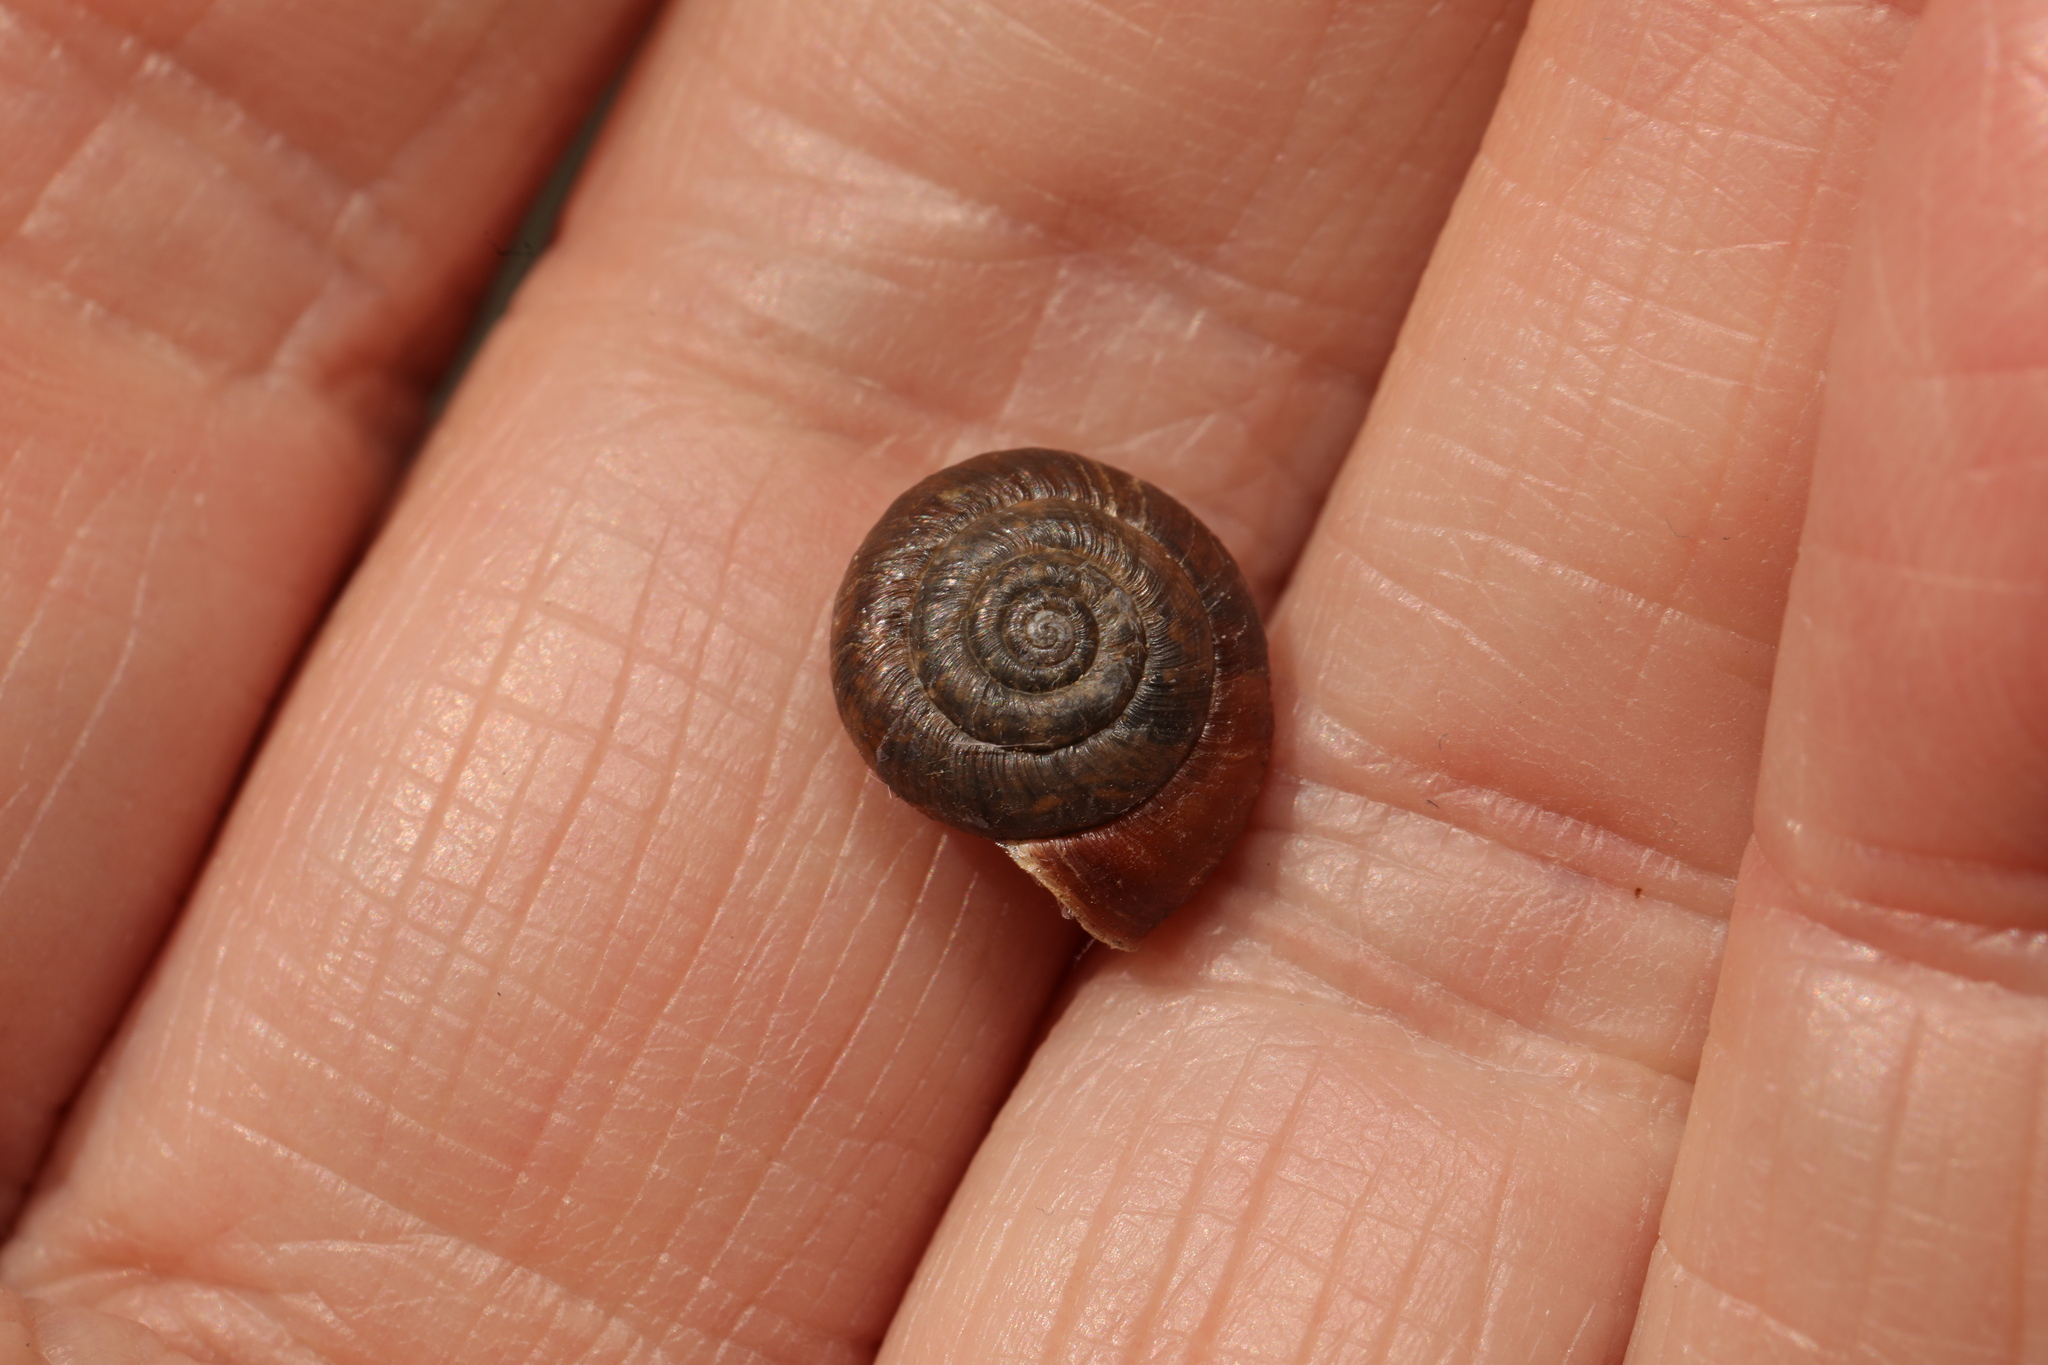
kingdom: Animalia
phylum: Mollusca
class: Gastropoda
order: Stylommatophora
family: Hygromiidae
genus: Trochulus
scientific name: Trochulus striolatus
